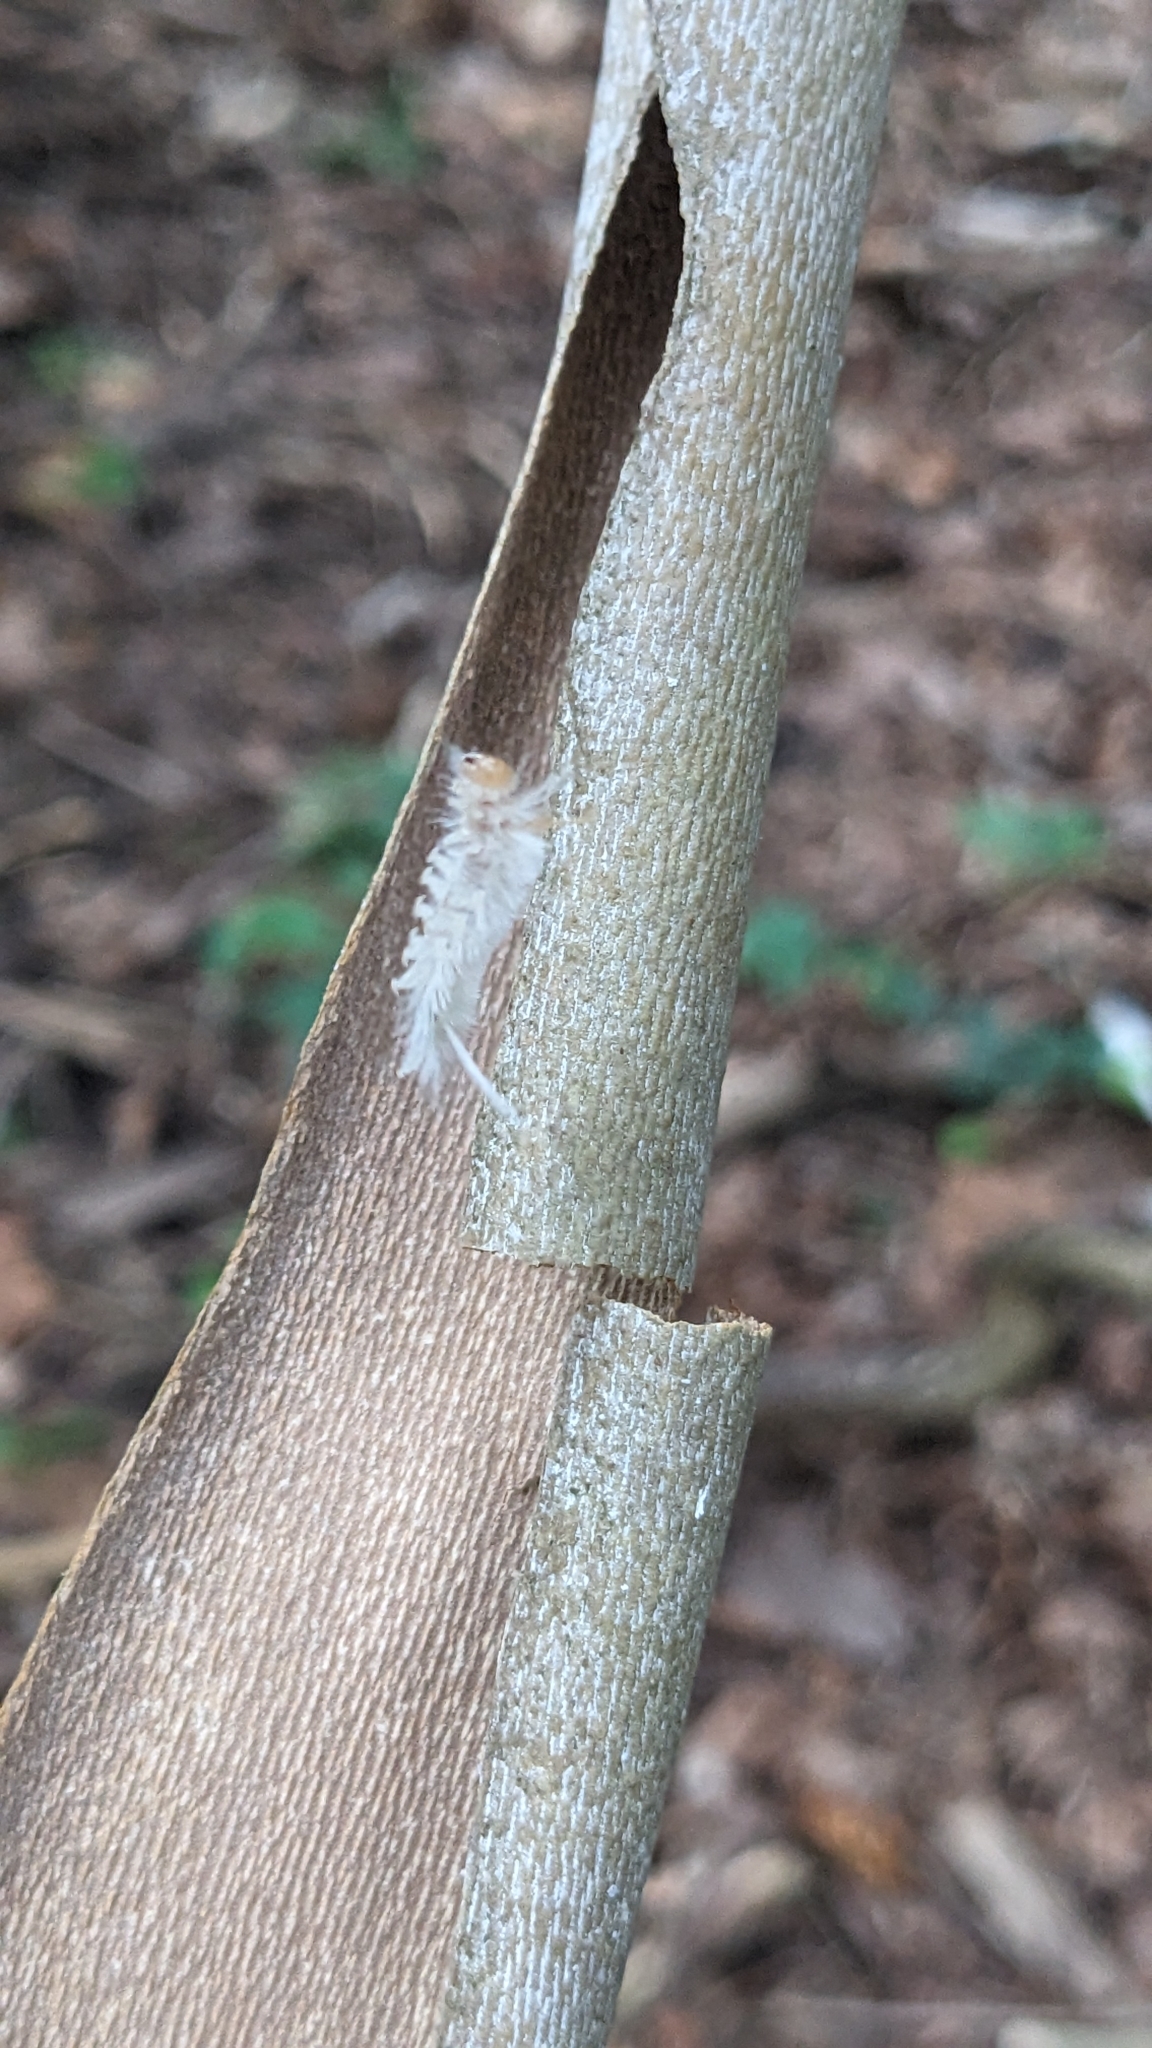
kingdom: Animalia
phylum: Arthropoda
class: Insecta
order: Lepidoptera
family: Erebidae
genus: Halysidota
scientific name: Halysidota harrisii
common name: Sycamore tussock moth
